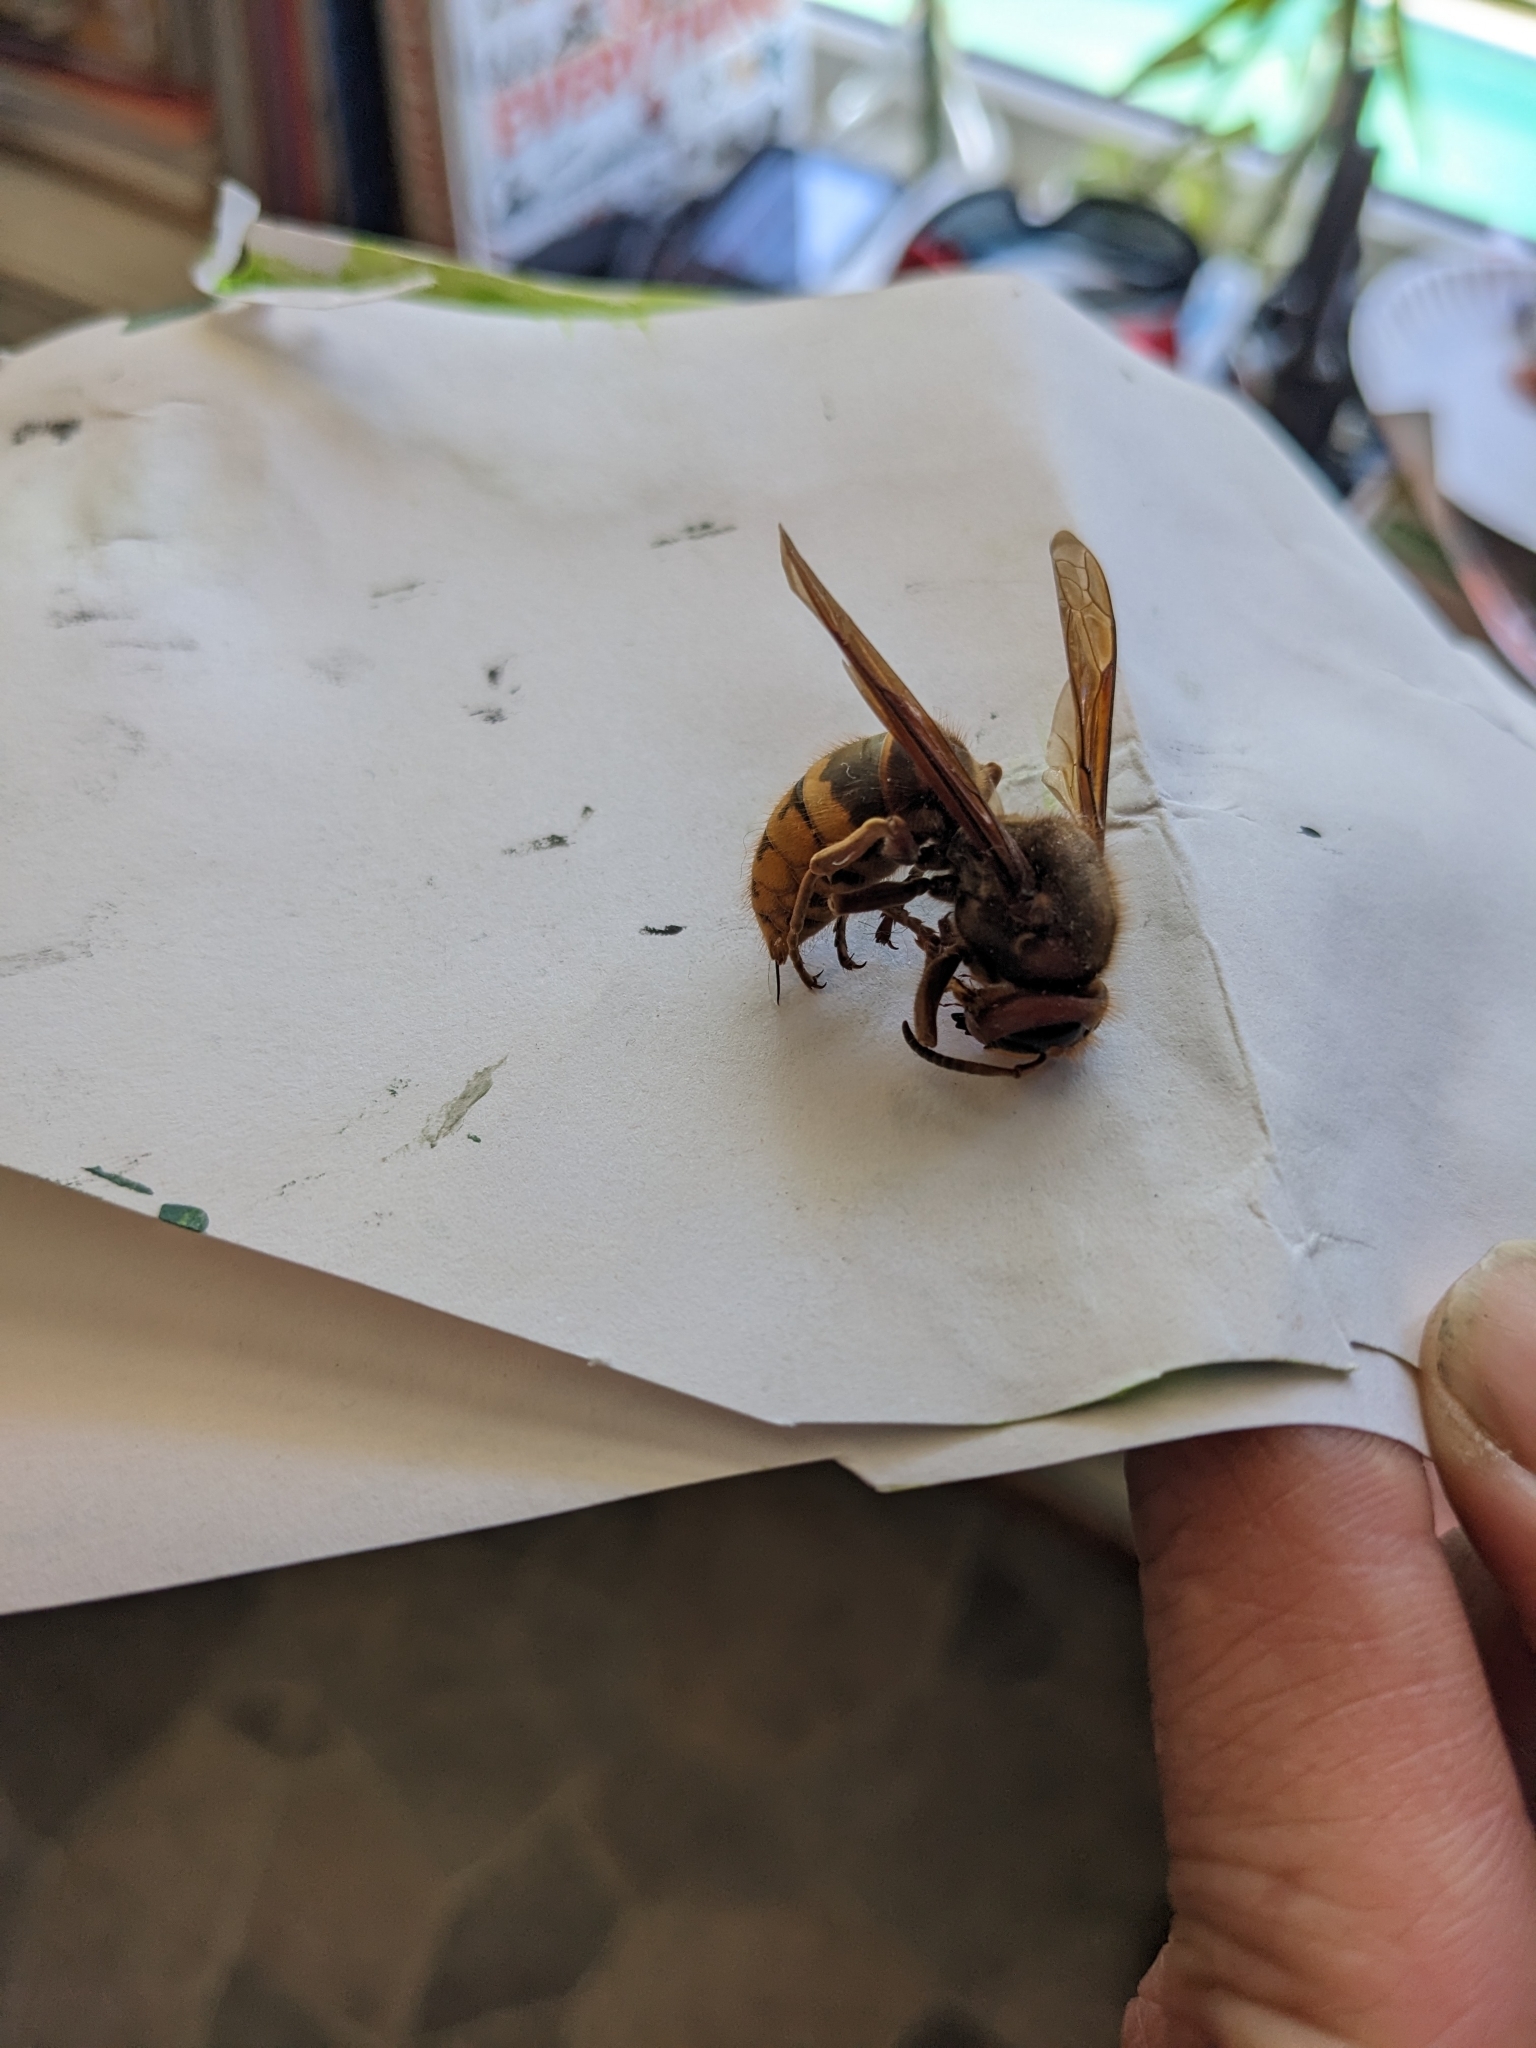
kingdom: Animalia
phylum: Arthropoda
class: Insecta
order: Hymenoptera
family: Vespidae
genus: Vespa
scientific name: Vespa crabro
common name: Hornet
